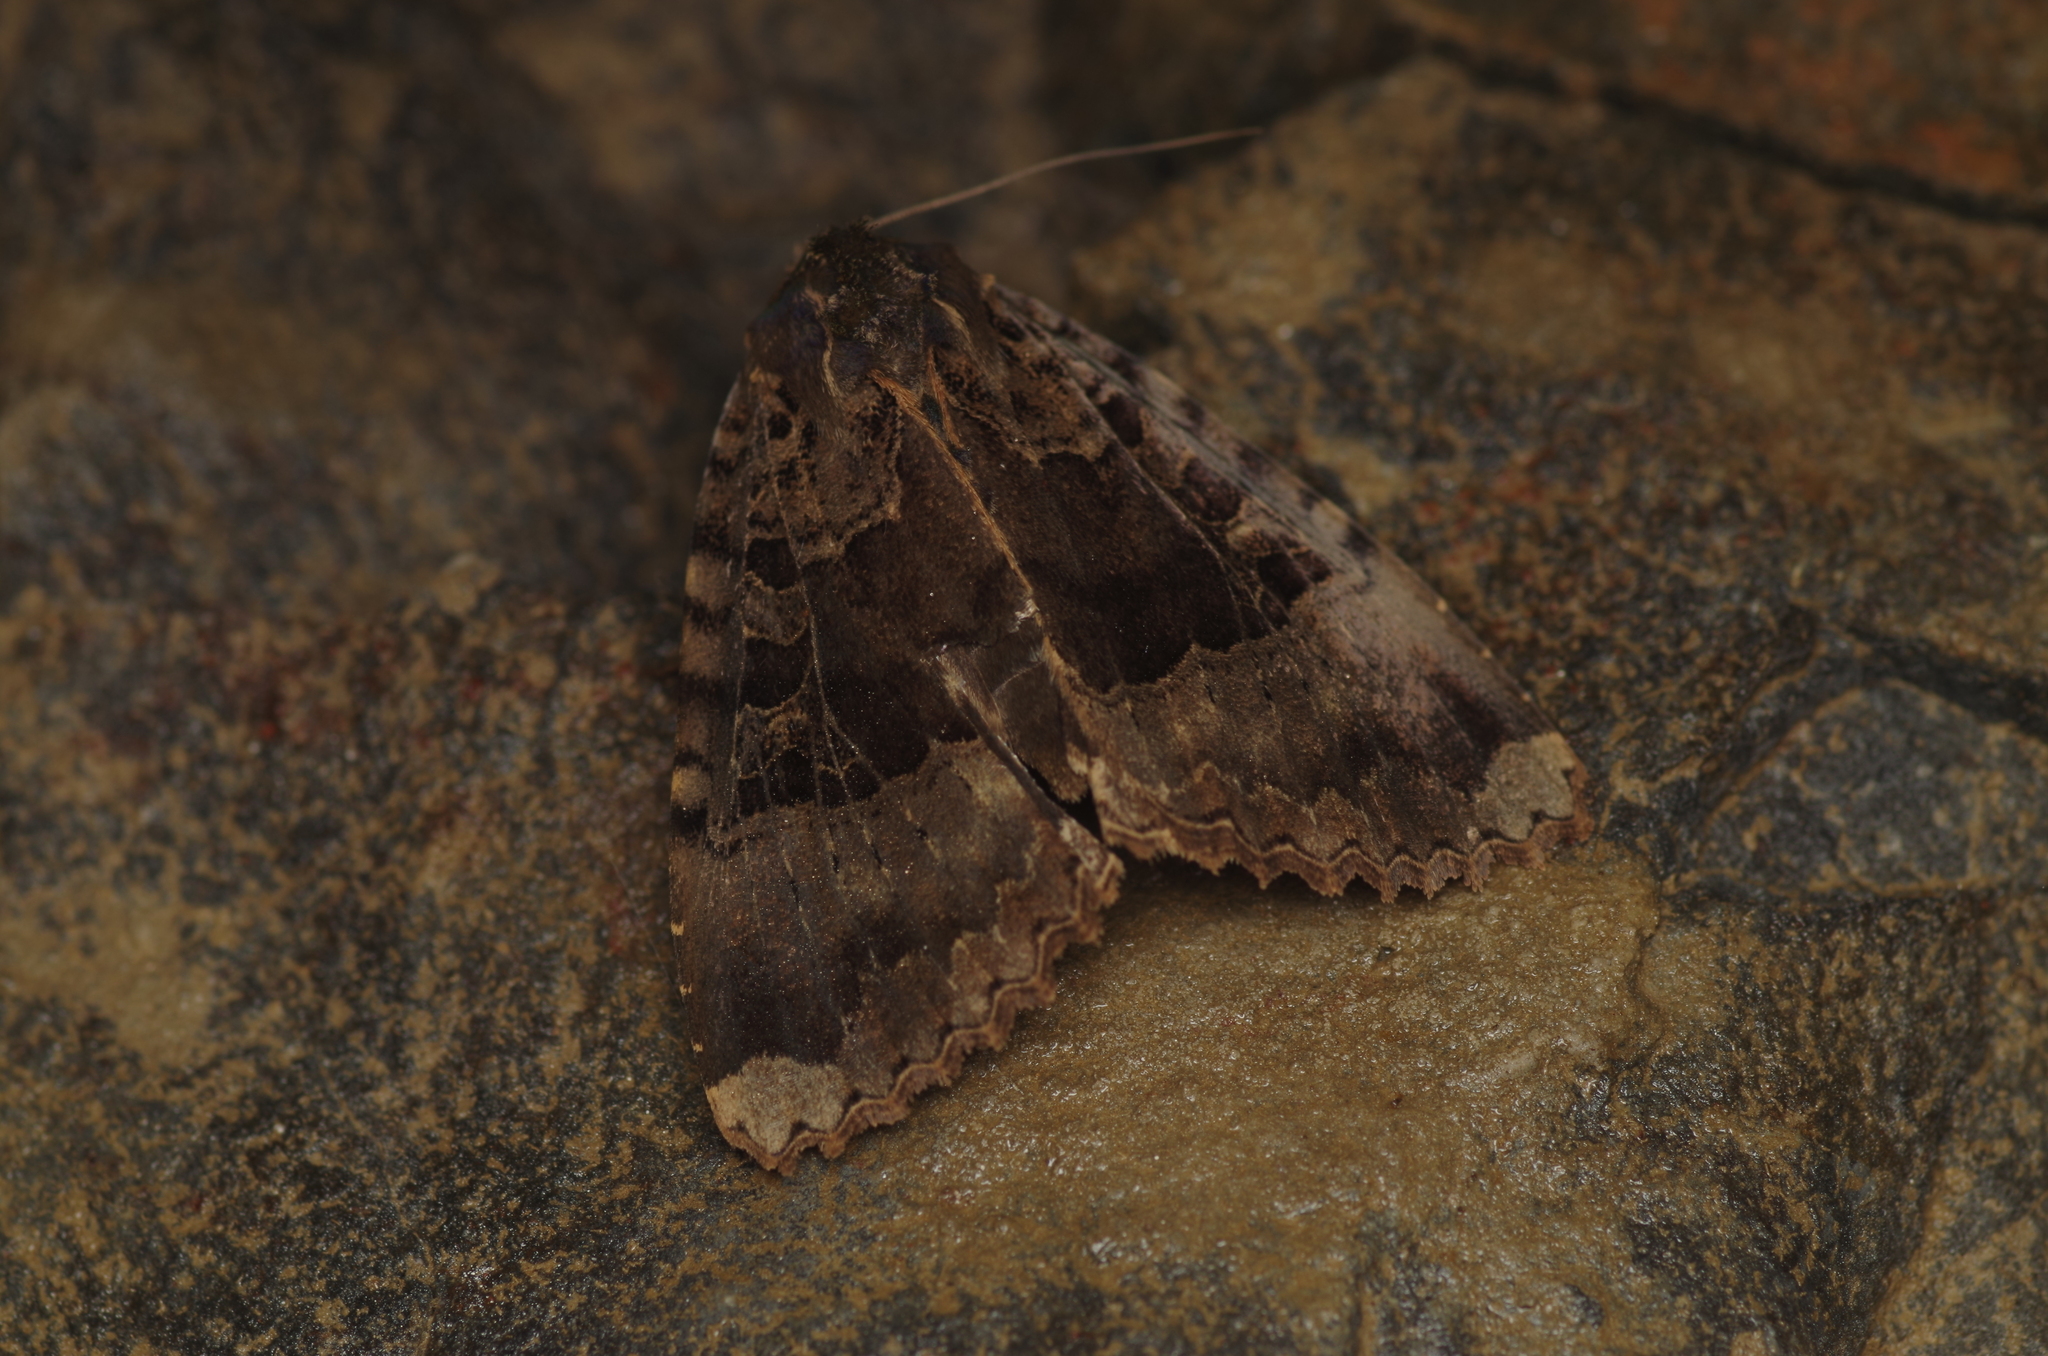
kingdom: Animalia
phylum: Arthropoda
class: Insecta
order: Lepidoptera
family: Noctuidae
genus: Mormo
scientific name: Mormo maura
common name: Old lady
